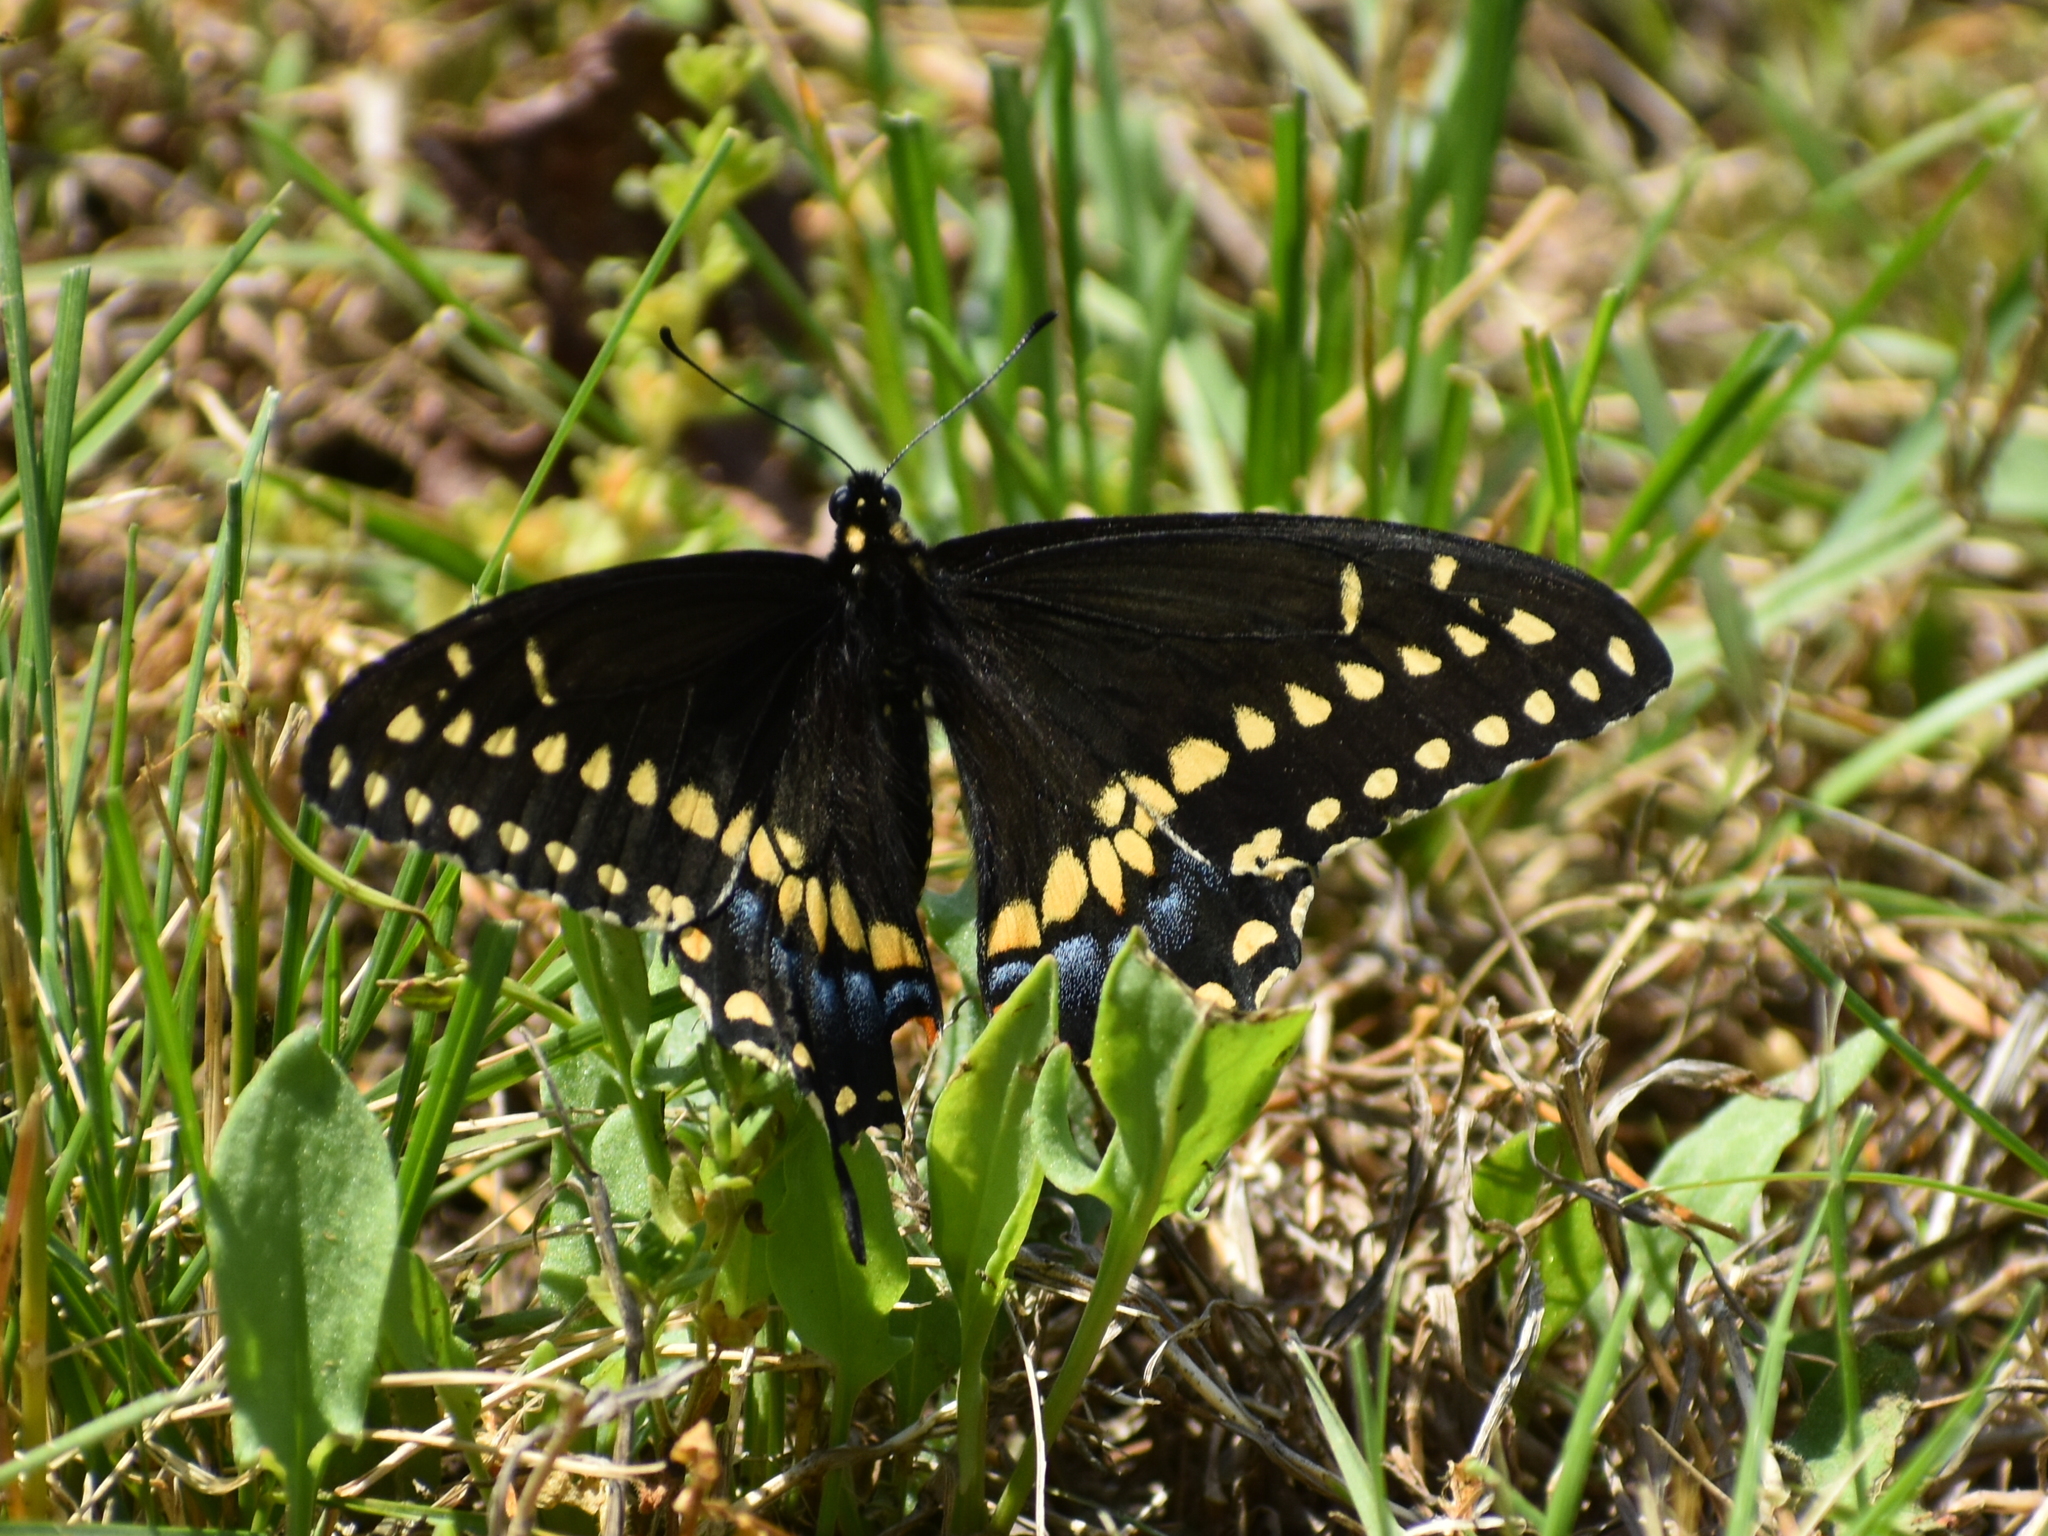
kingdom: Animalia
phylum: Arthropoda
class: Insecta
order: Lepidoptera
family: Papilionidae
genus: Papilio
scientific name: Papilio polyxenes
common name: Black swallowtail
